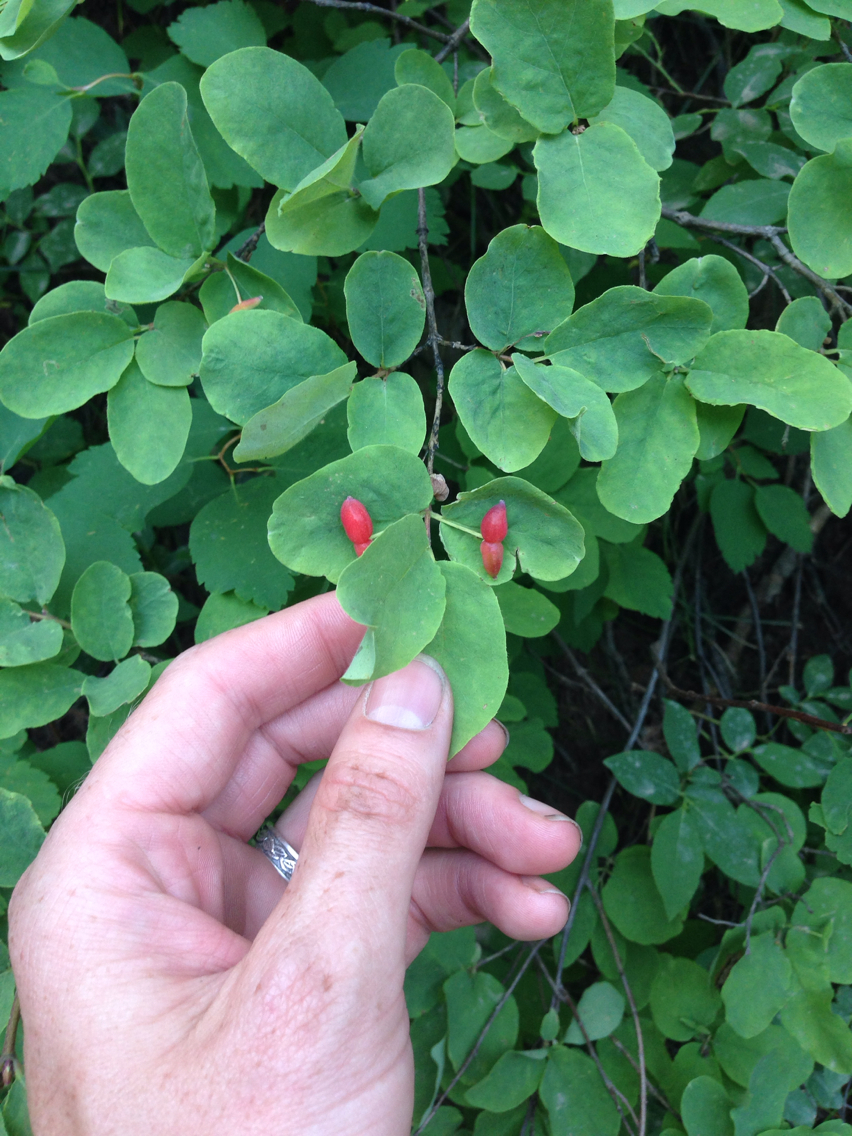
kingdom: Plantae
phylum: Tracheophyta
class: Magnoliopsida
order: Dipsacales
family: Caprifoliaceae
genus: Lonicera
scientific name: Lonicera utahensis
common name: Utah honeysuckle
